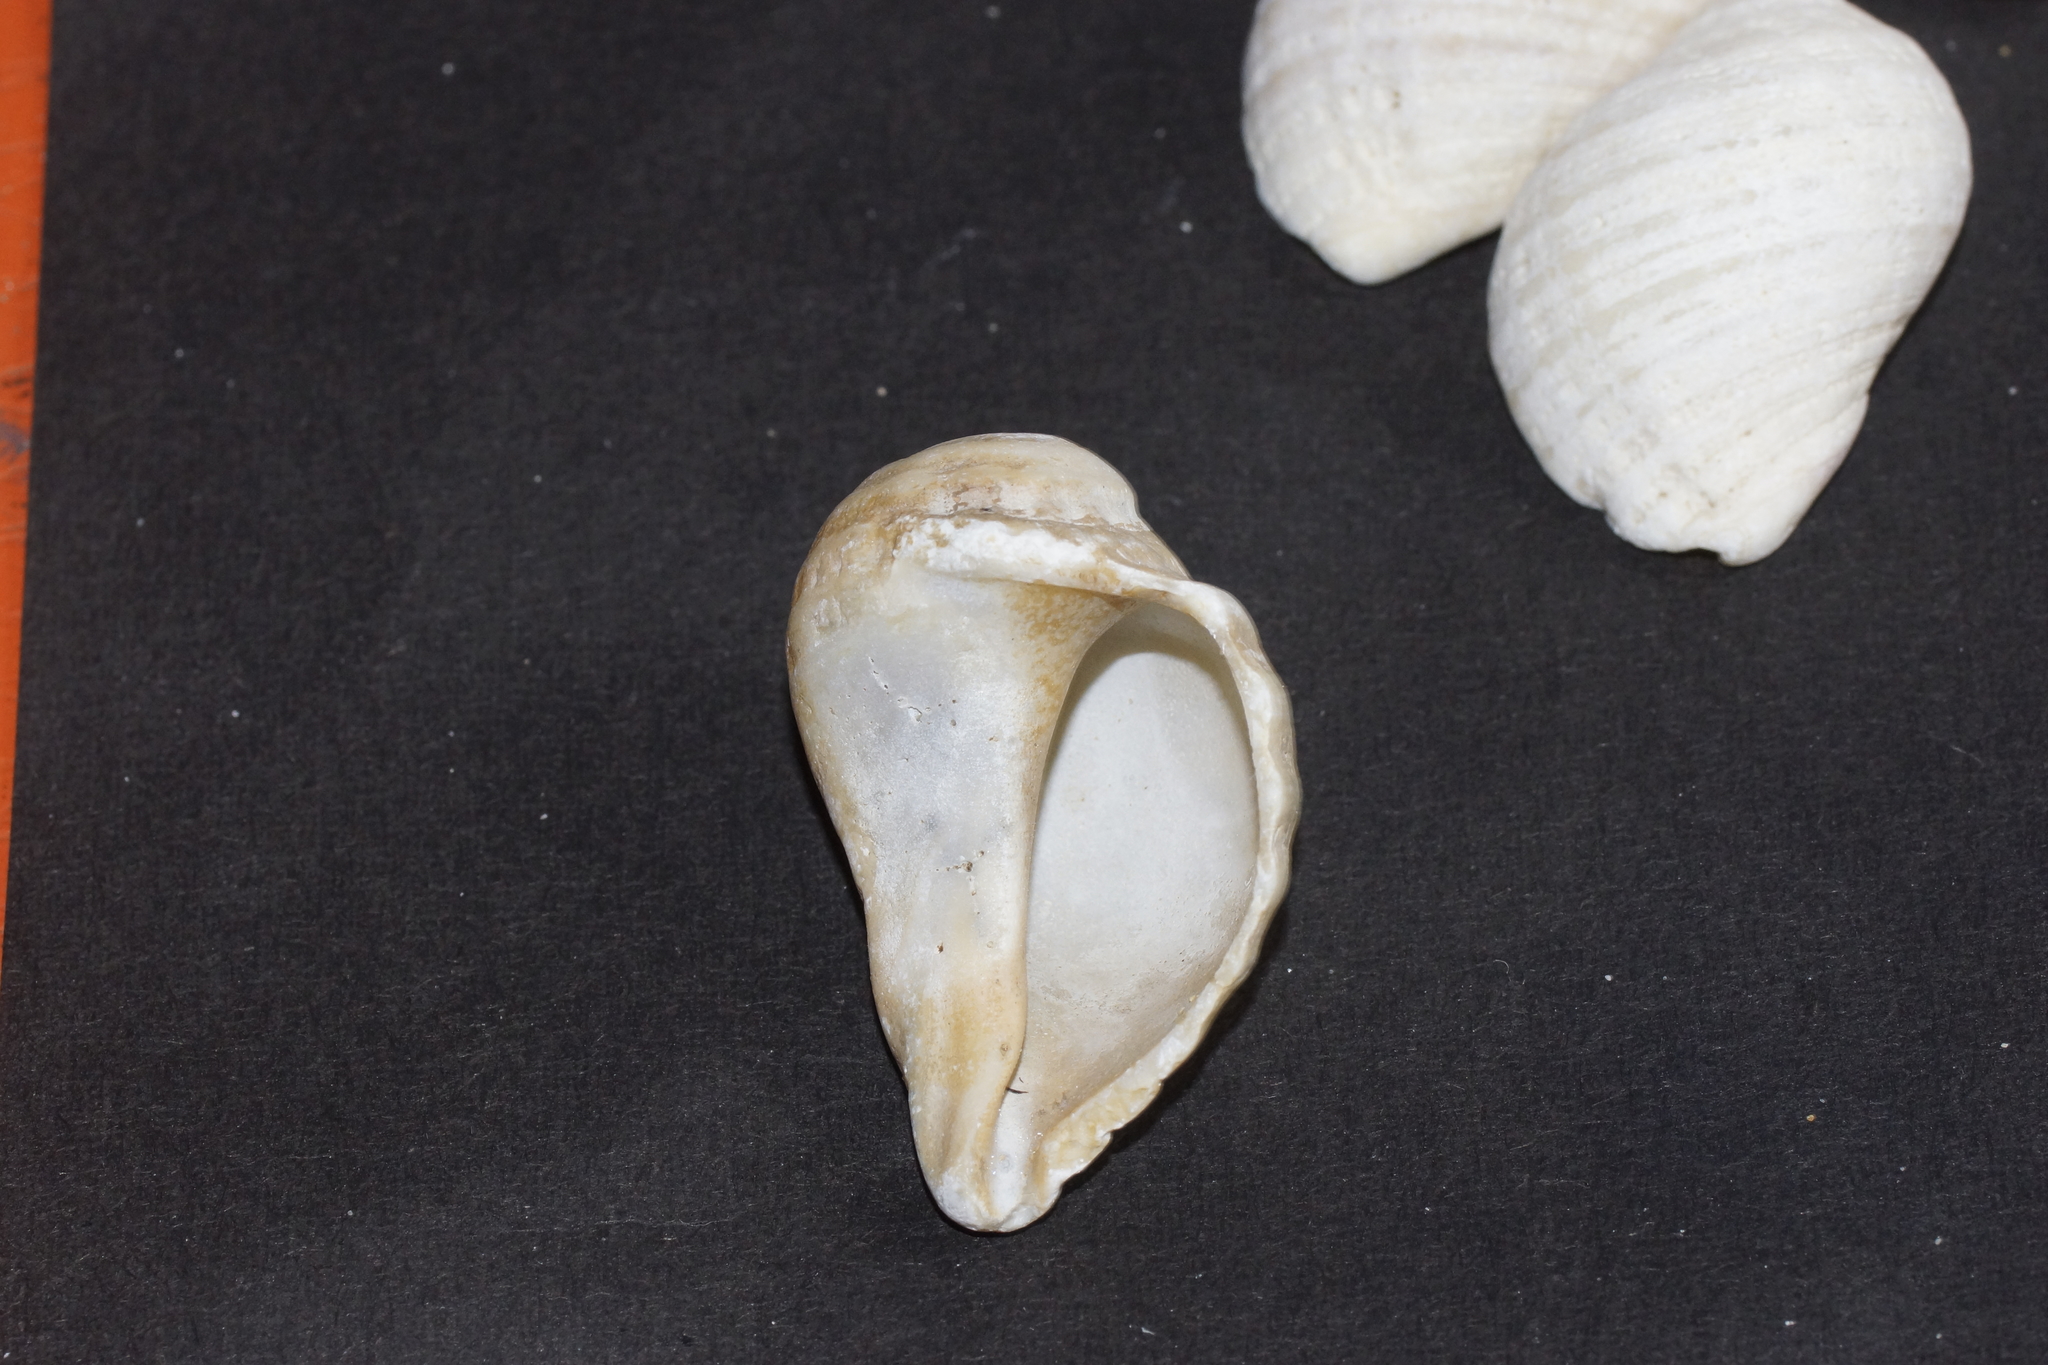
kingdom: Animalia
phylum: Mollusca
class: Gastropoda
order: Neogastropoda
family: Muricidae
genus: Dicathais
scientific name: Dicathais orbita
